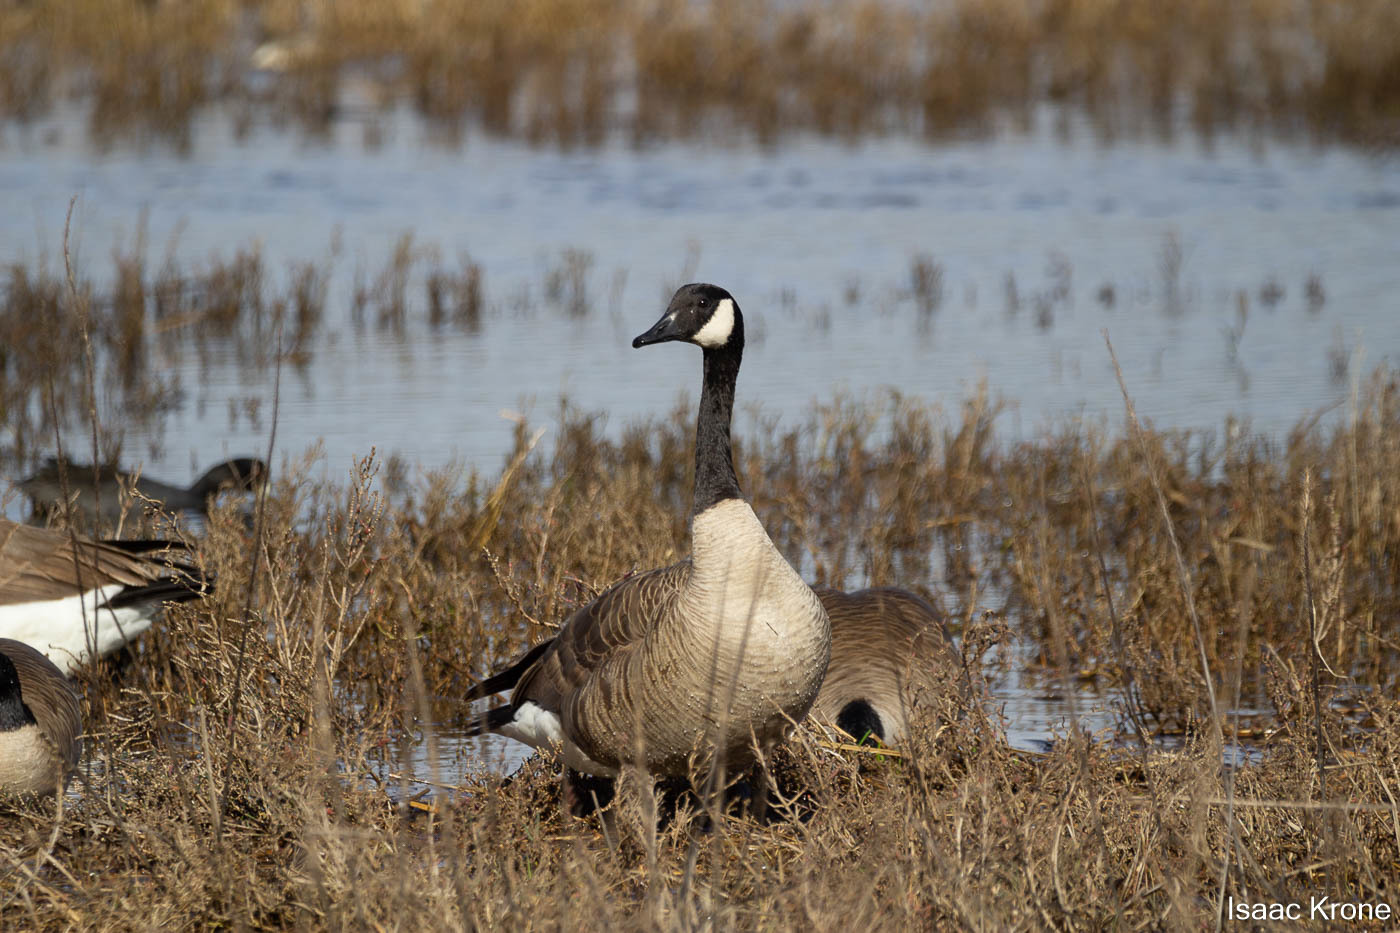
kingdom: Animalia
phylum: Chordata
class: Aves
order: Anseriformes
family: Anatidae
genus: Branta
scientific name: Branta canadensis
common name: Canada goose
